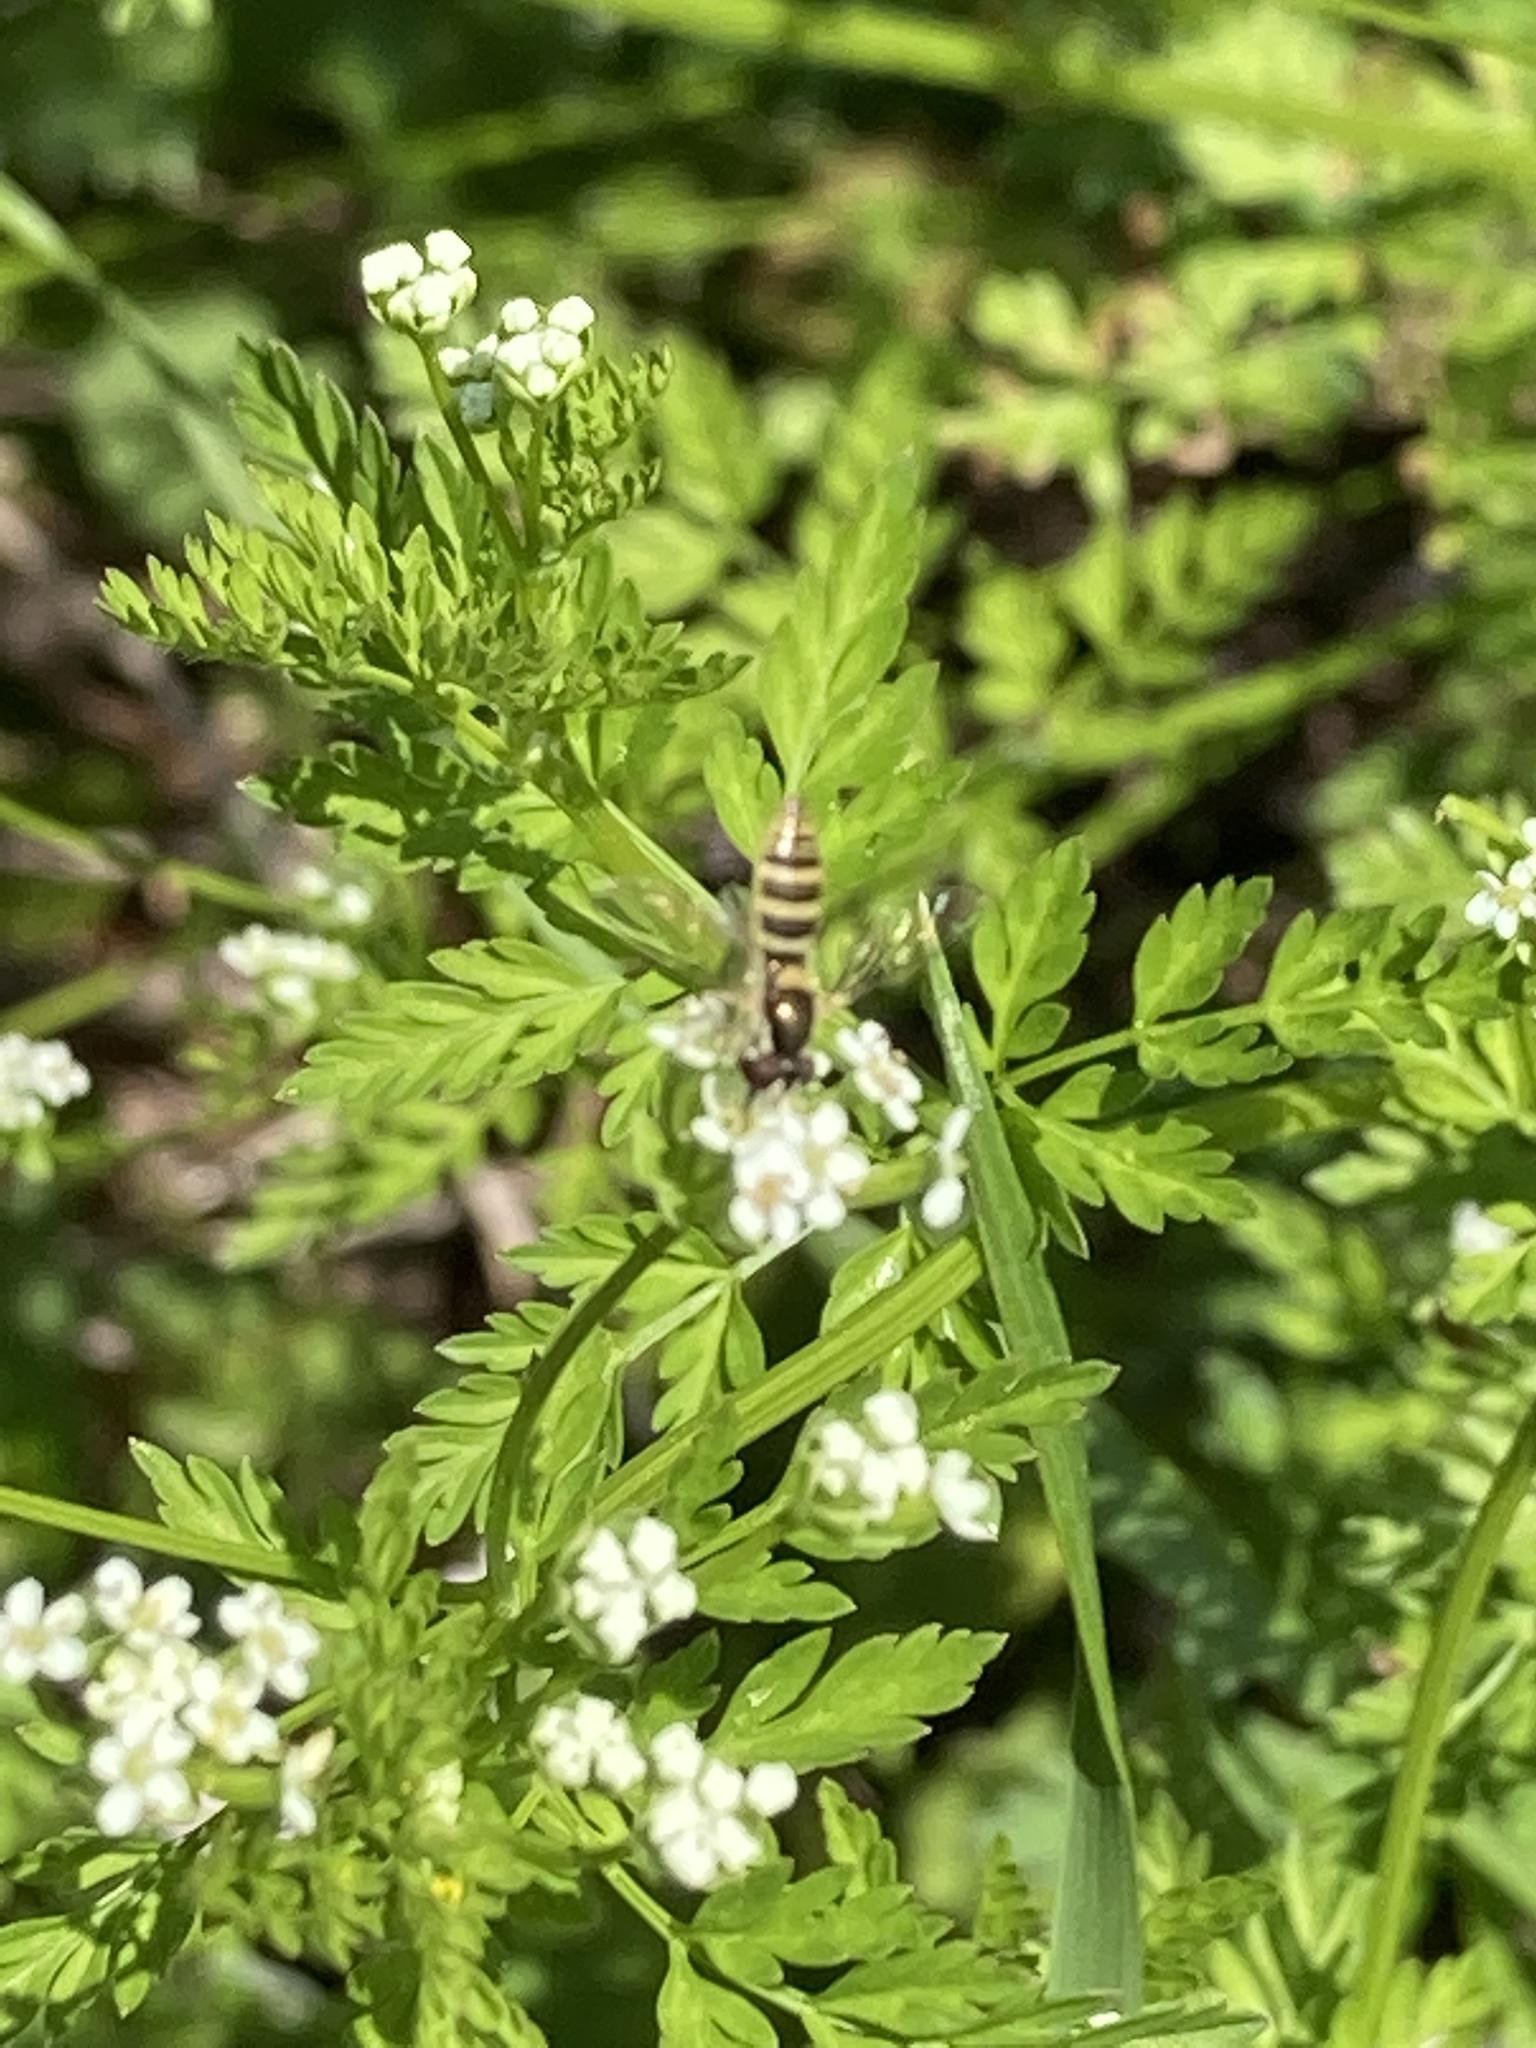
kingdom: Animalia
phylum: Arthropoda
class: Insecta
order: Diptera
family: Syrphidae
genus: Sphaerophoria
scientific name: Sphaerophoria contigua
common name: Tufted globetail
